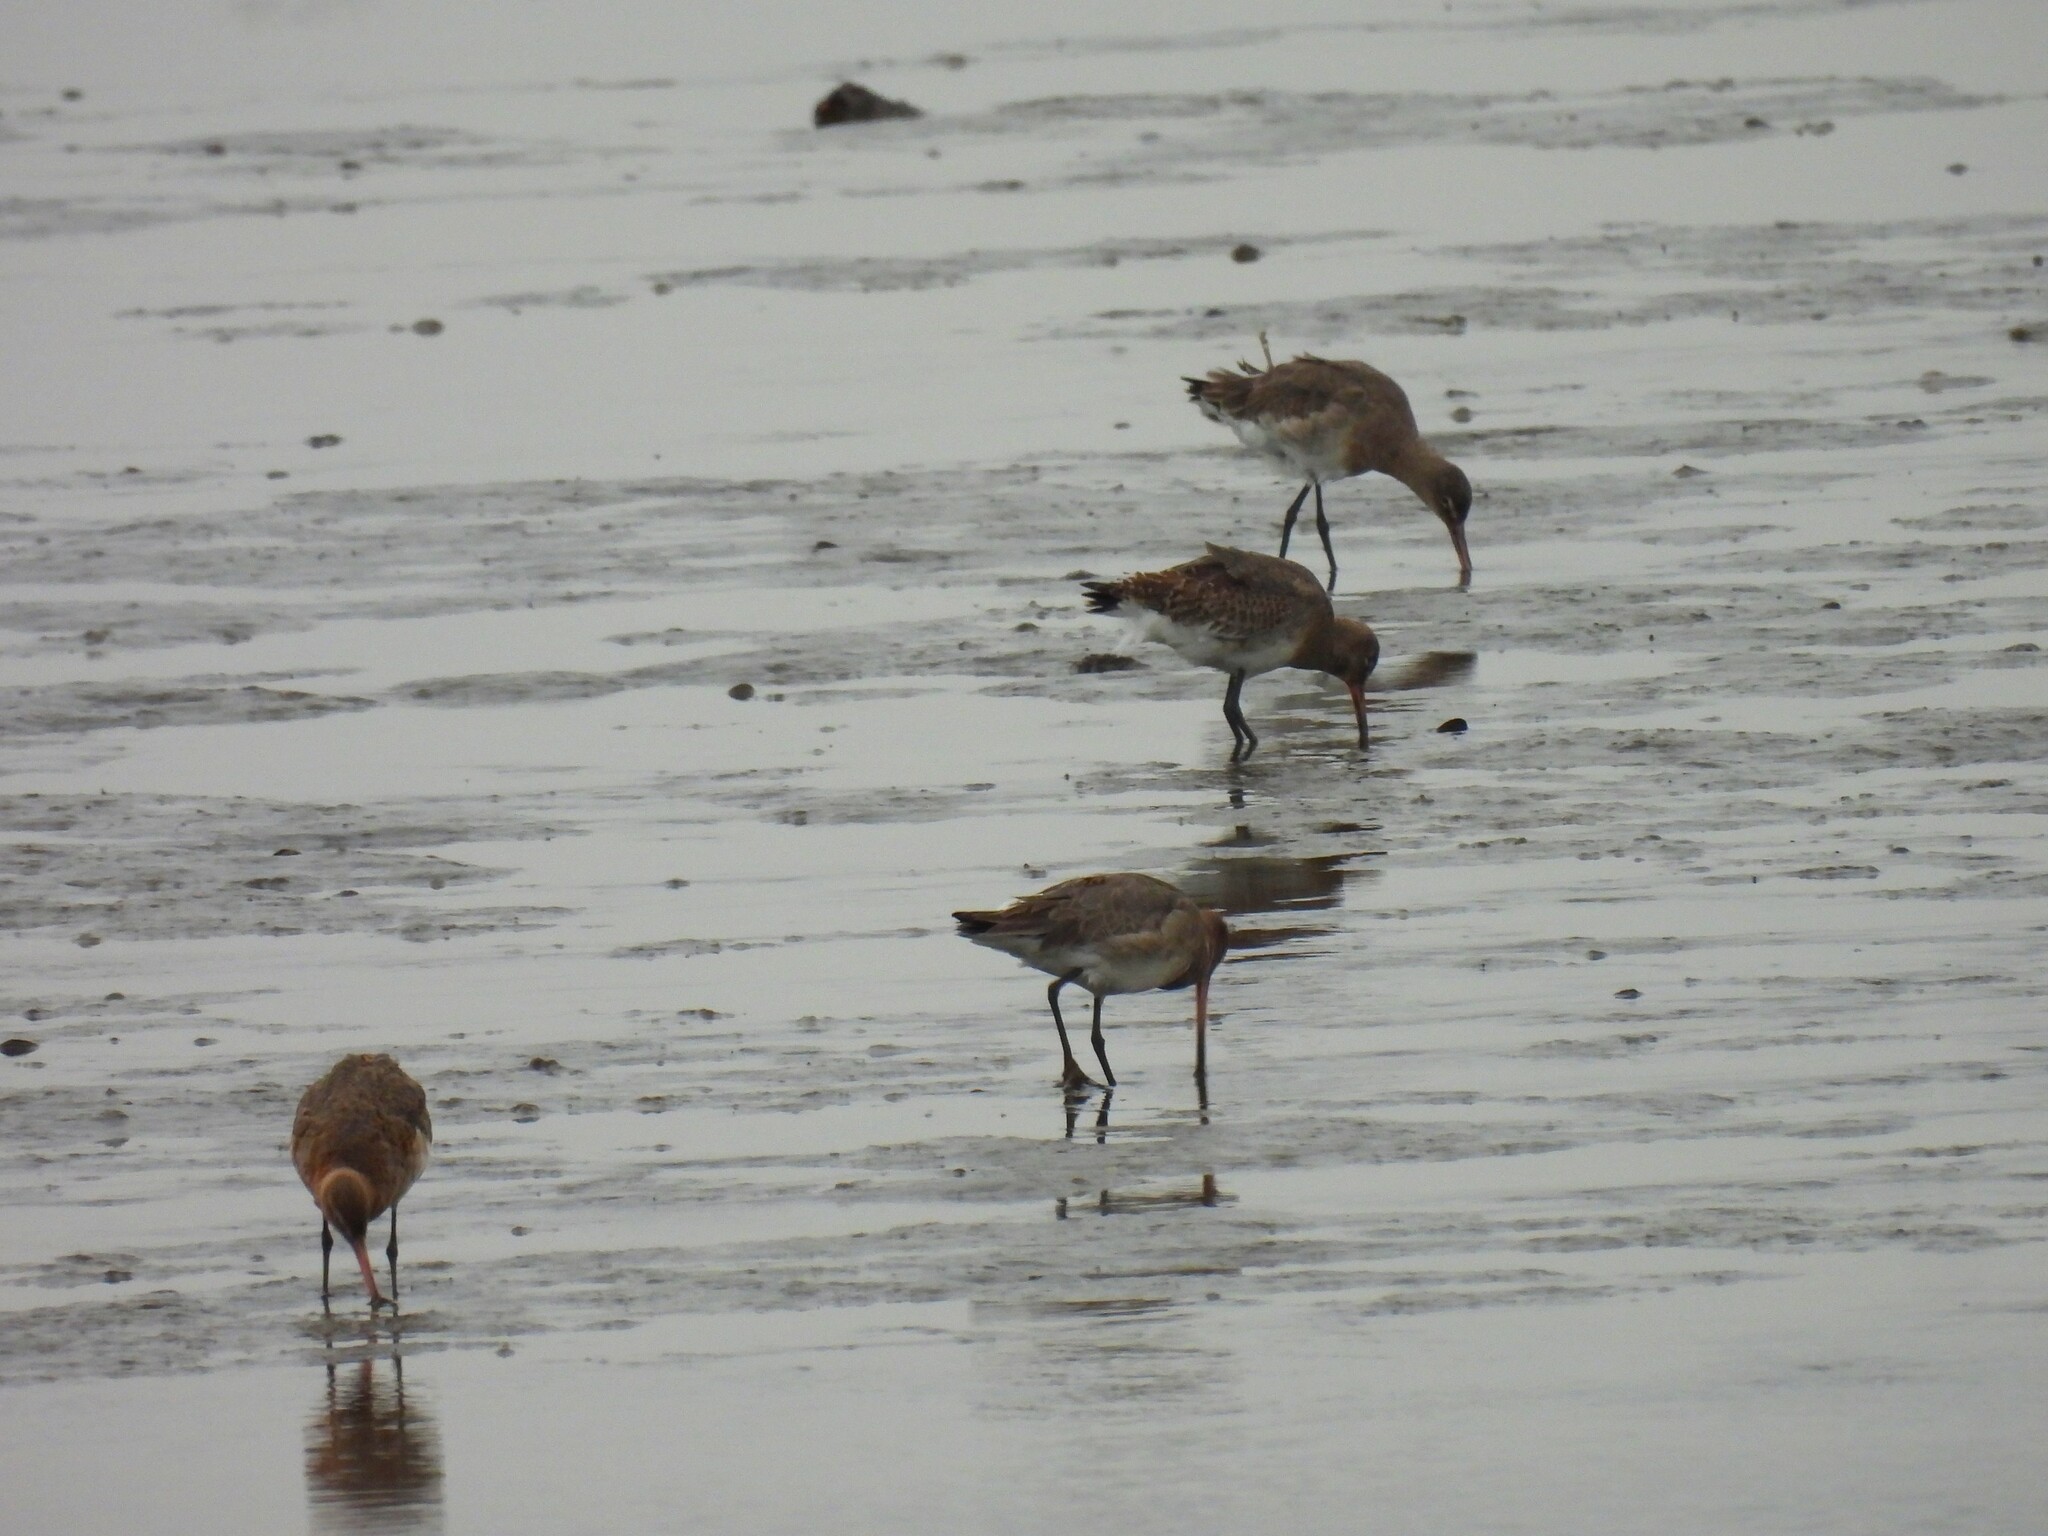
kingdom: Animalia
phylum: Chordata
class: Aves
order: Charadriiformes
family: Scolopacidae
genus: Limosa
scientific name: Limosa limosa
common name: Black-tailed godwit
